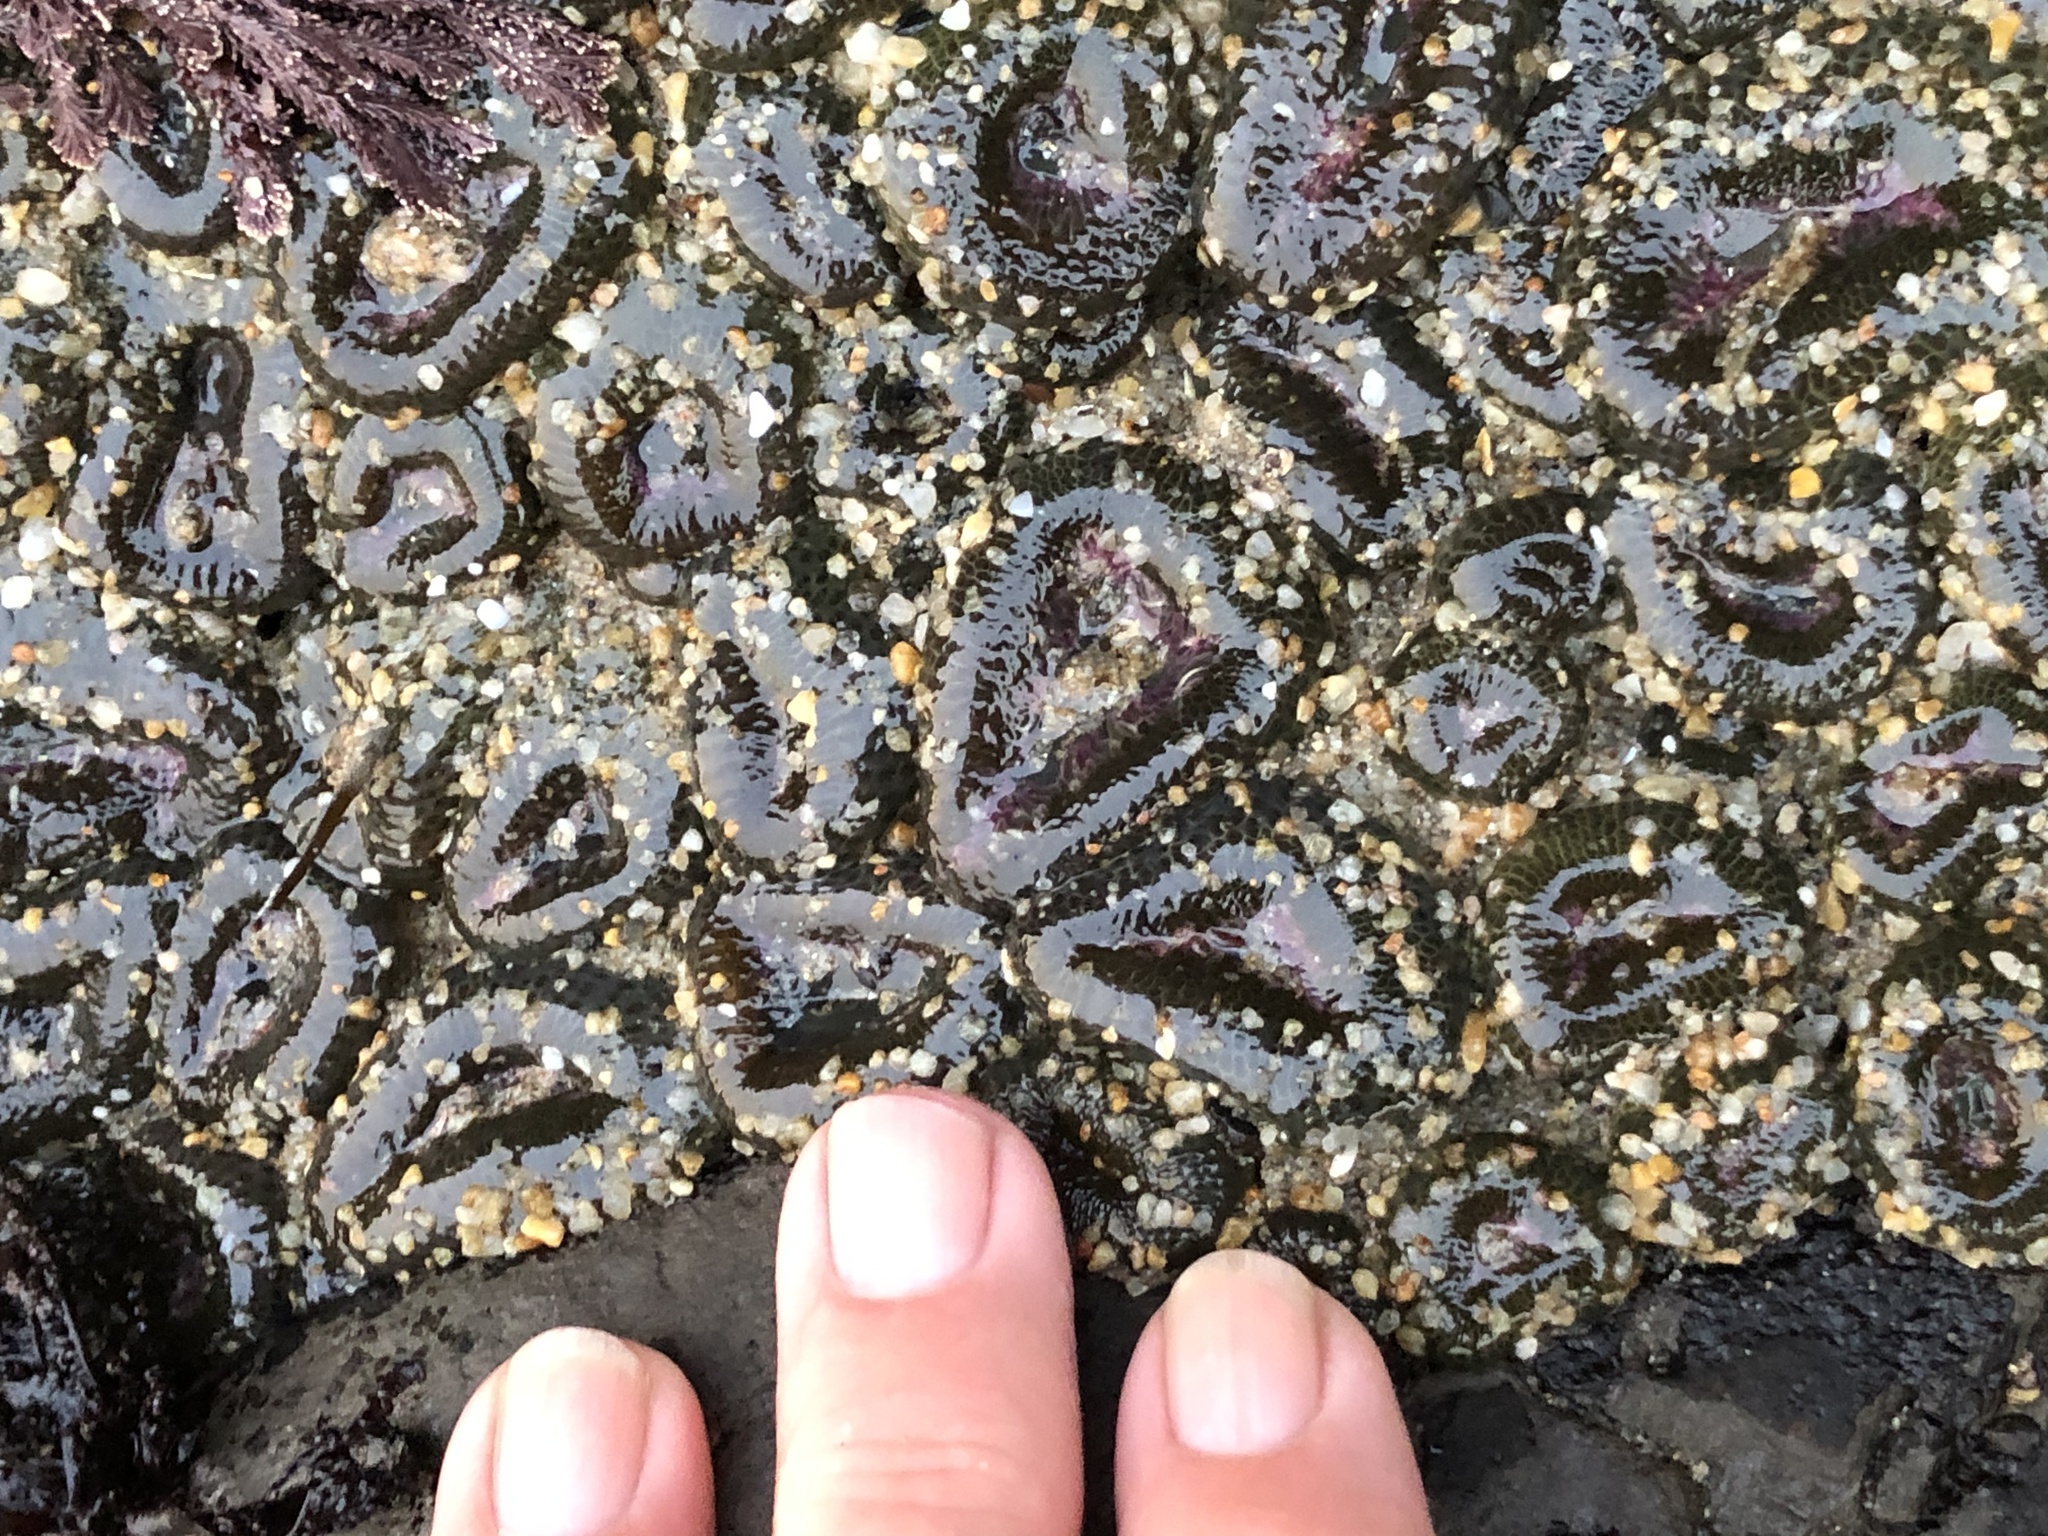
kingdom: Animalia
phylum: Cnidaria
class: Anthozoa
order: Actiniaria
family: Actiniidae
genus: Anthopleura
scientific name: Anthopleura elegantissima
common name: Clonal anemone
